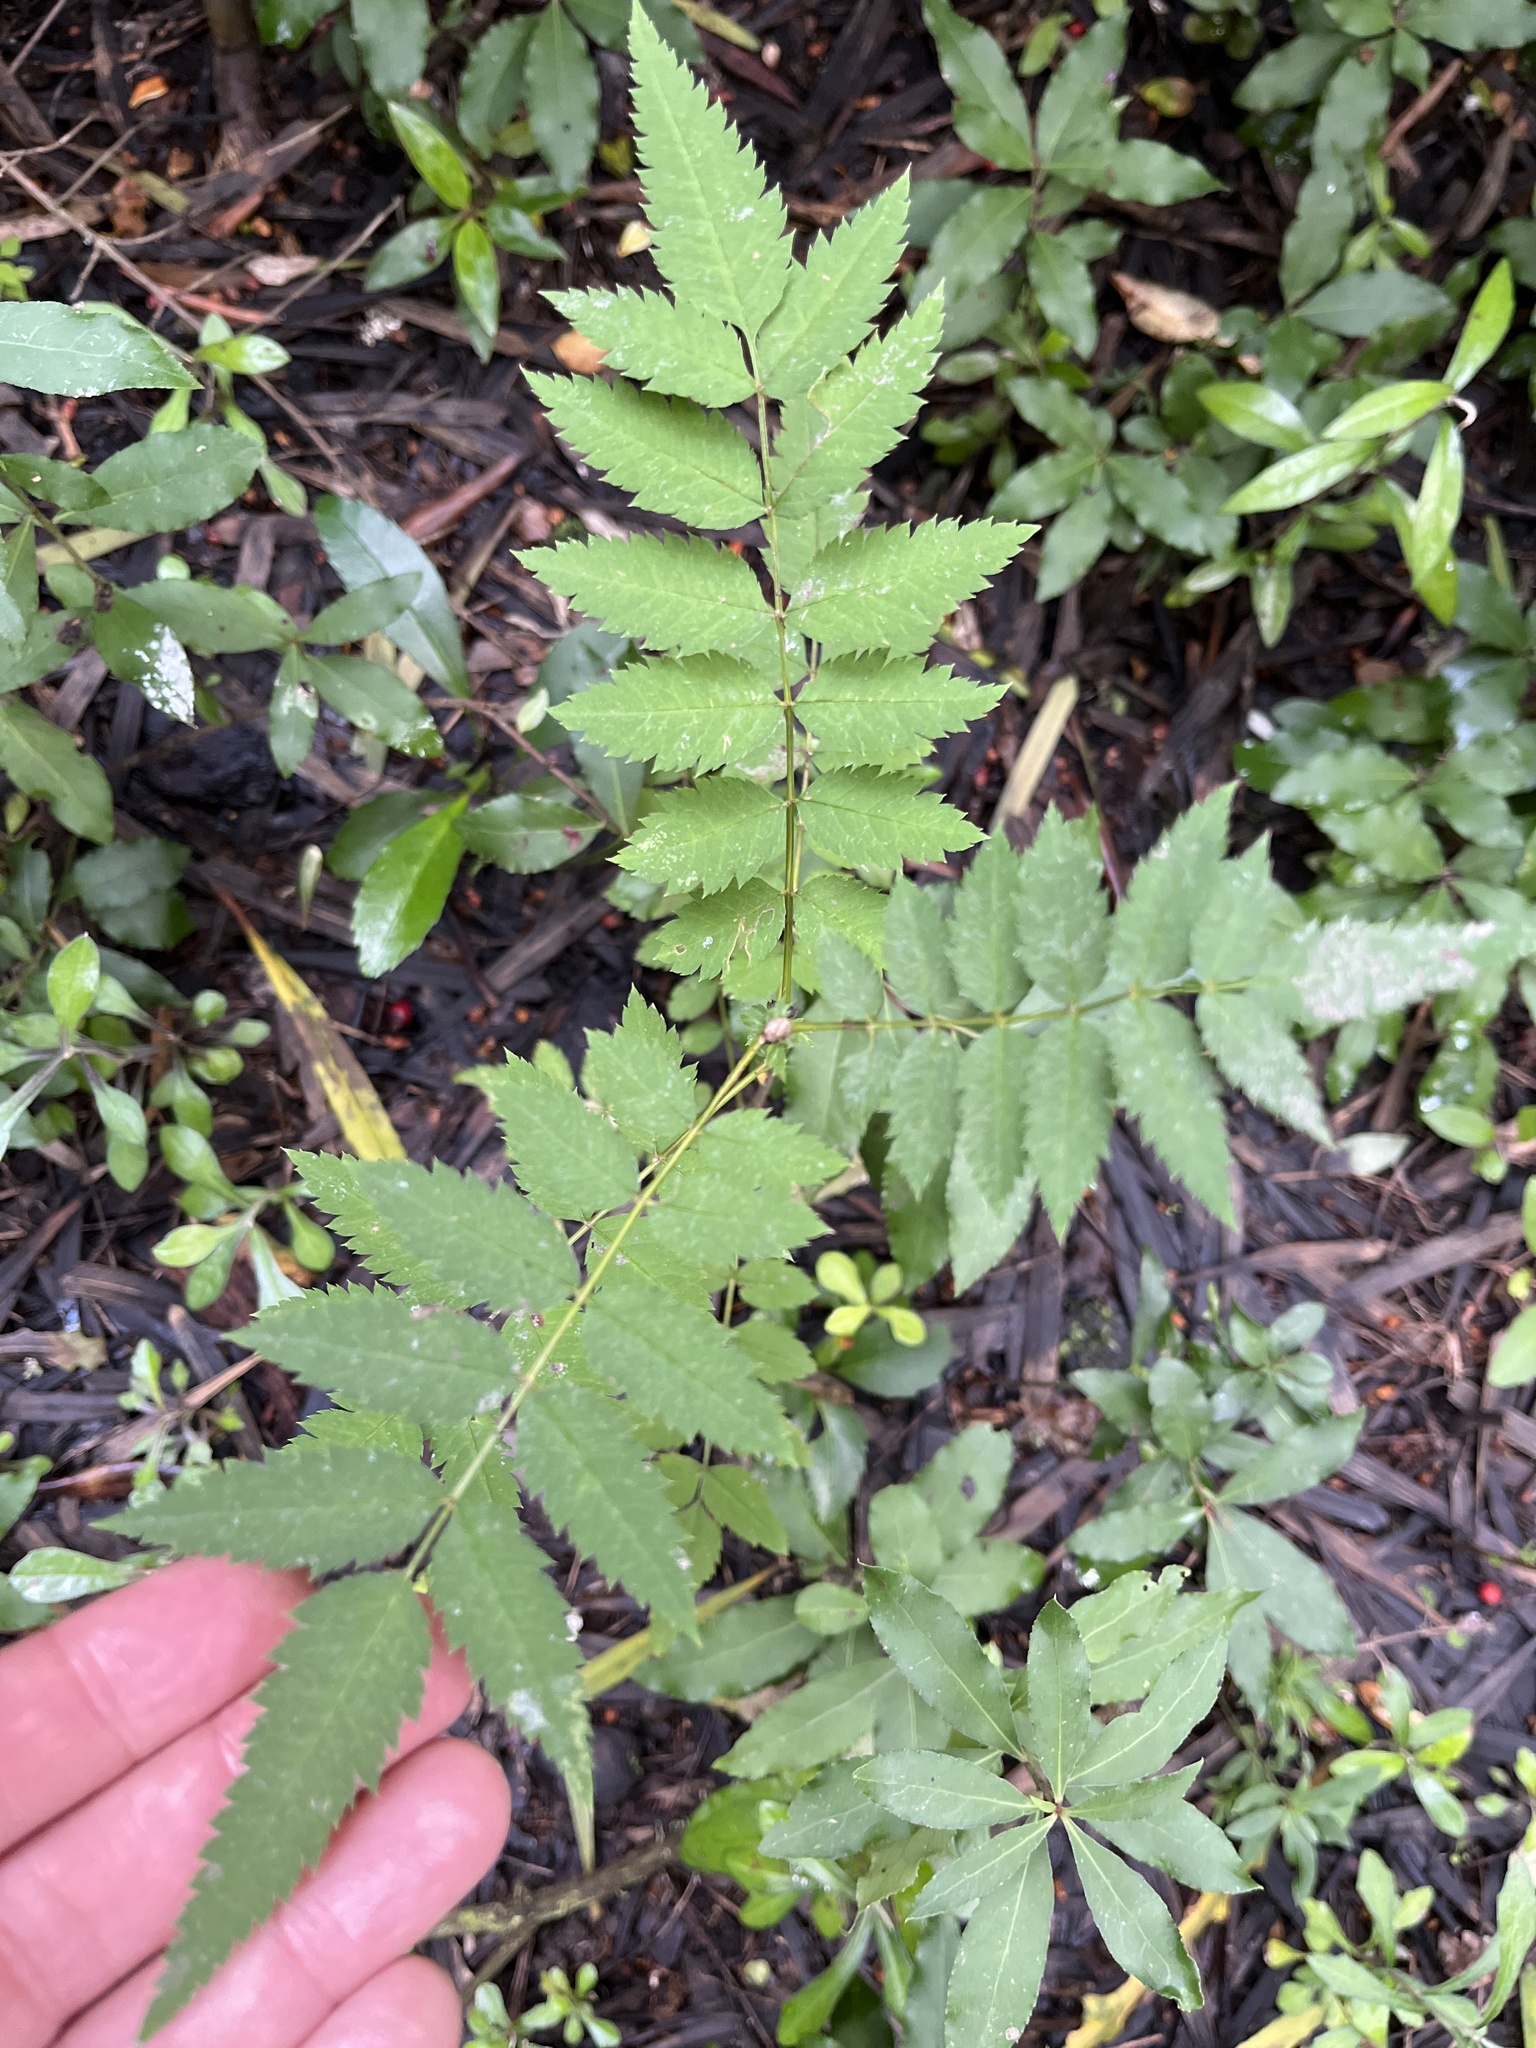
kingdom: Plantae
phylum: Tracheophyta
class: Magnoliopsida
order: Rosales
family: Rosaceae
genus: Sorbus
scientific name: Sorbus aucuparia
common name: Rowan
